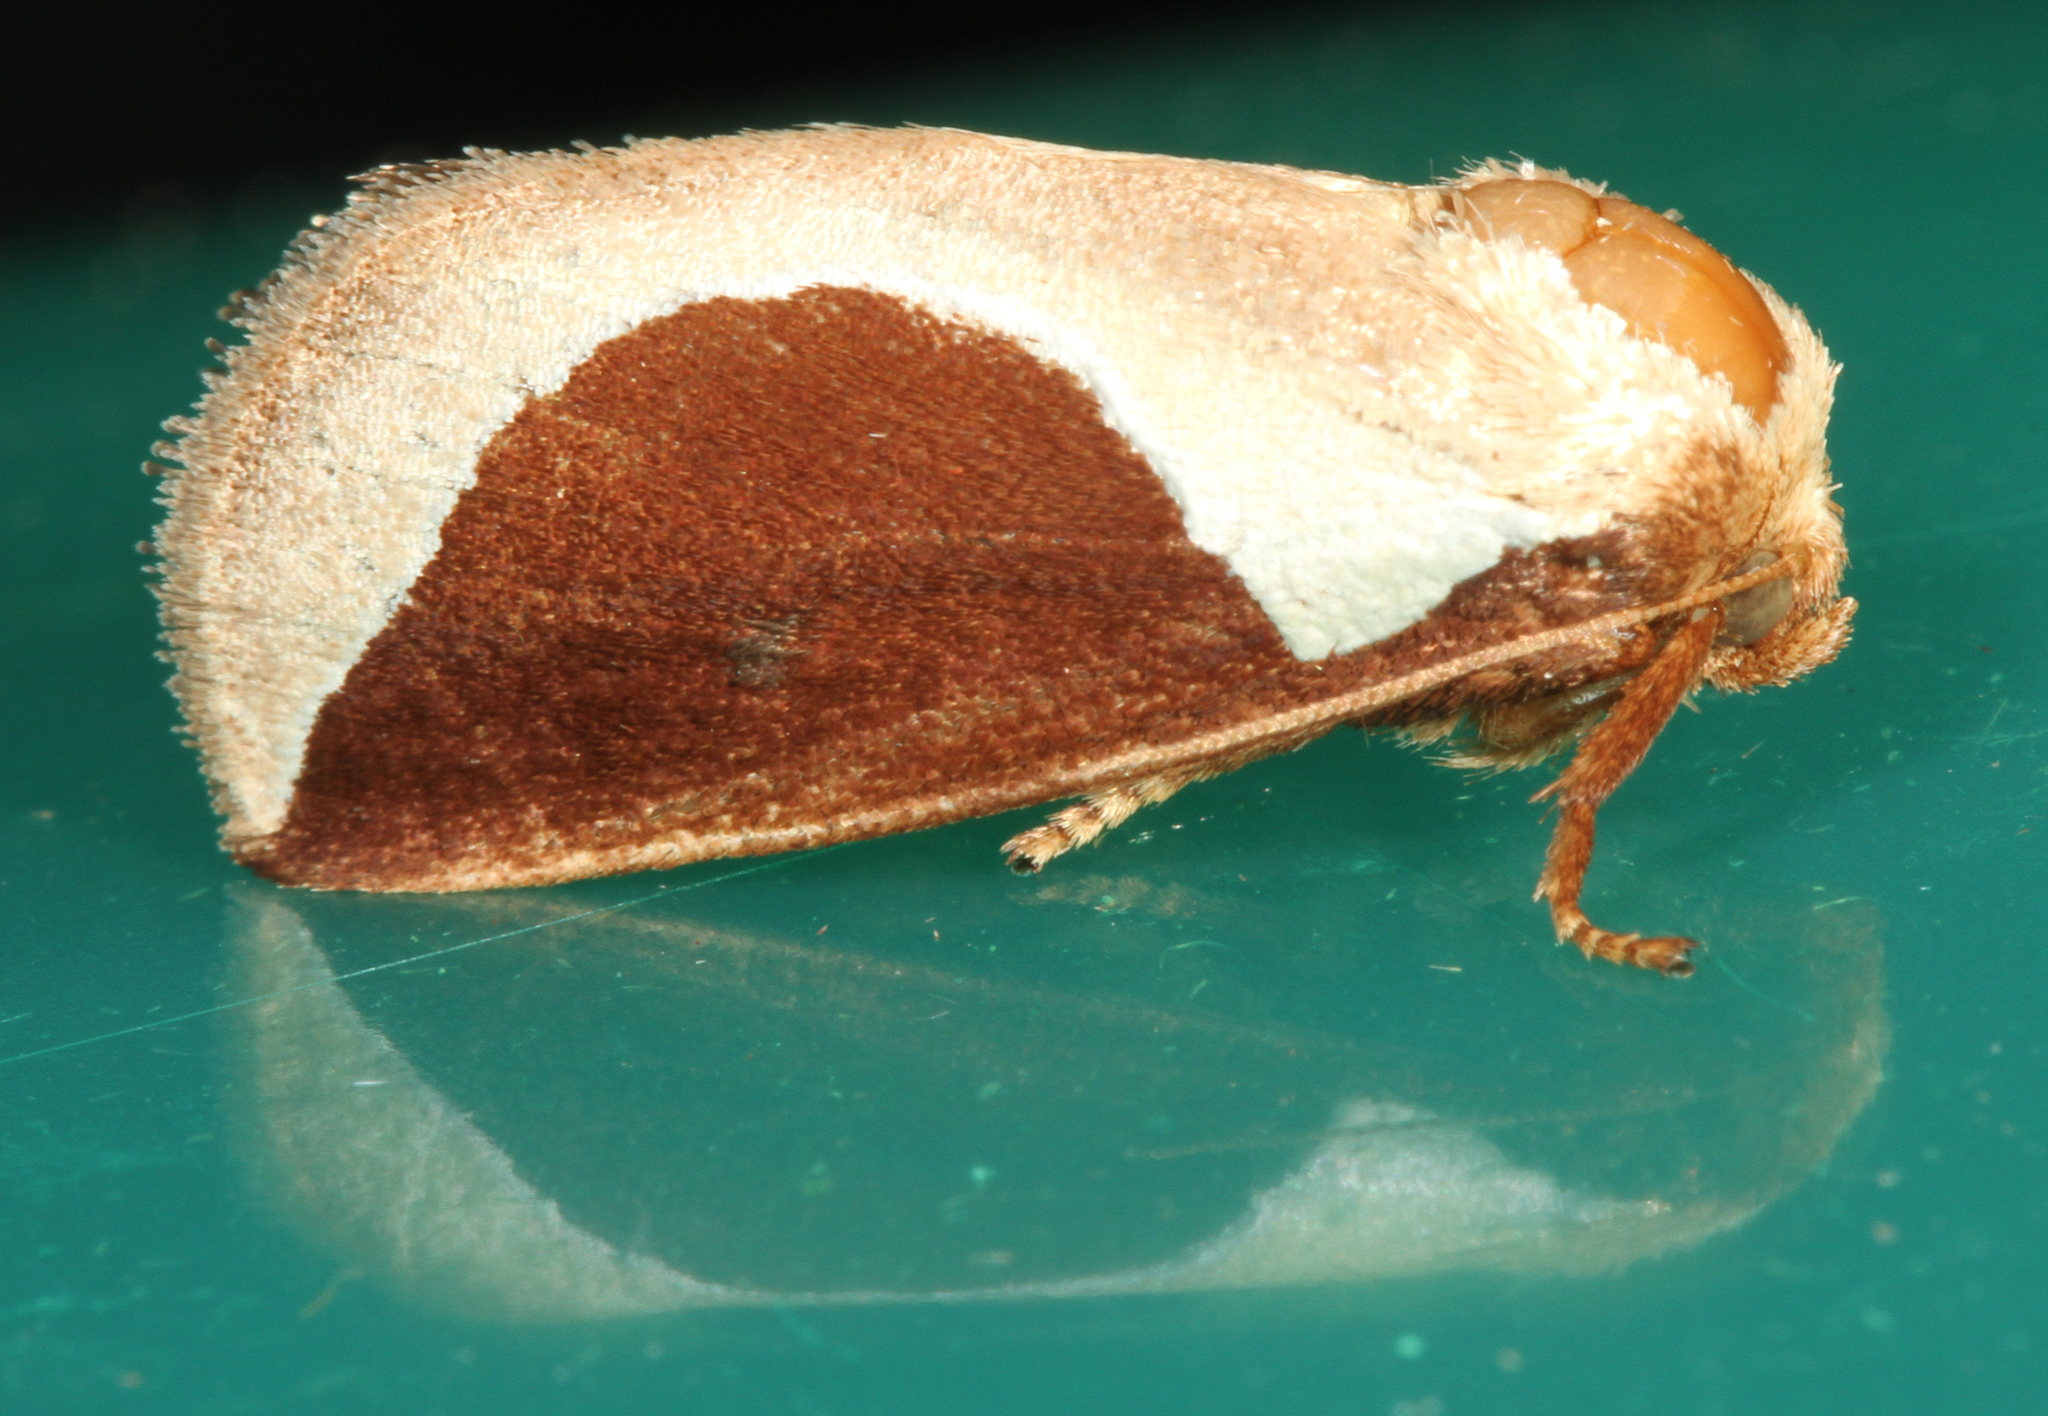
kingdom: Animalia
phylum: Arthropoda
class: Insecta
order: Lepidoptera
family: Limacodidae
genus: Prolimacodes
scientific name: Prolimacodes badia
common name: Skiff moth
